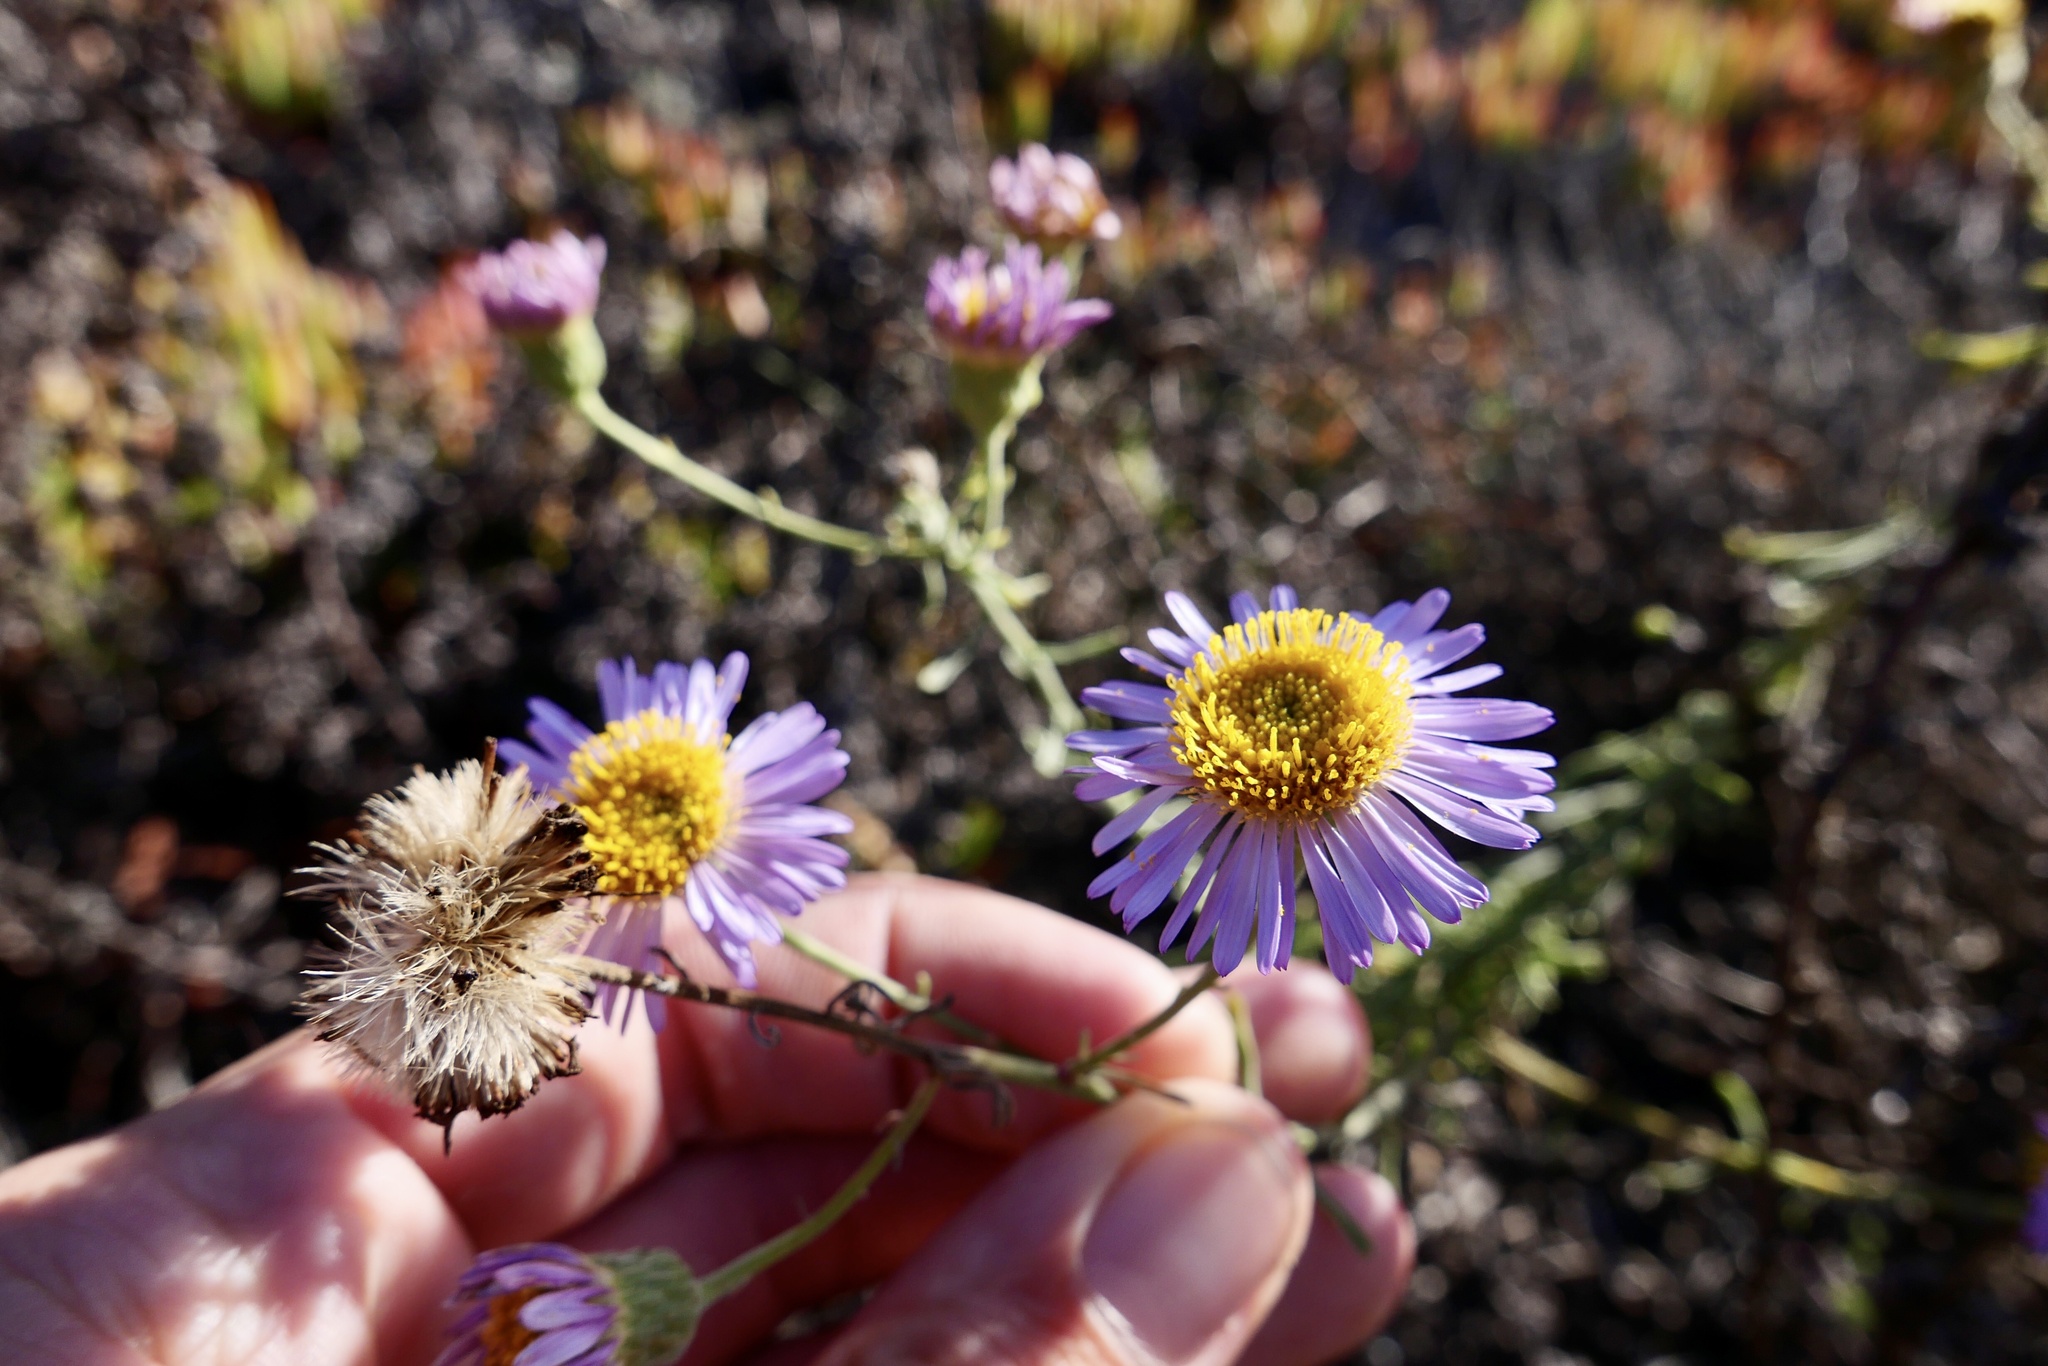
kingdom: Plantae
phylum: Tracheophyta
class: Magnoliopsida
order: Asterales
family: Asteraceae
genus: Erigeron
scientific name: Erigeron blochmaniae
